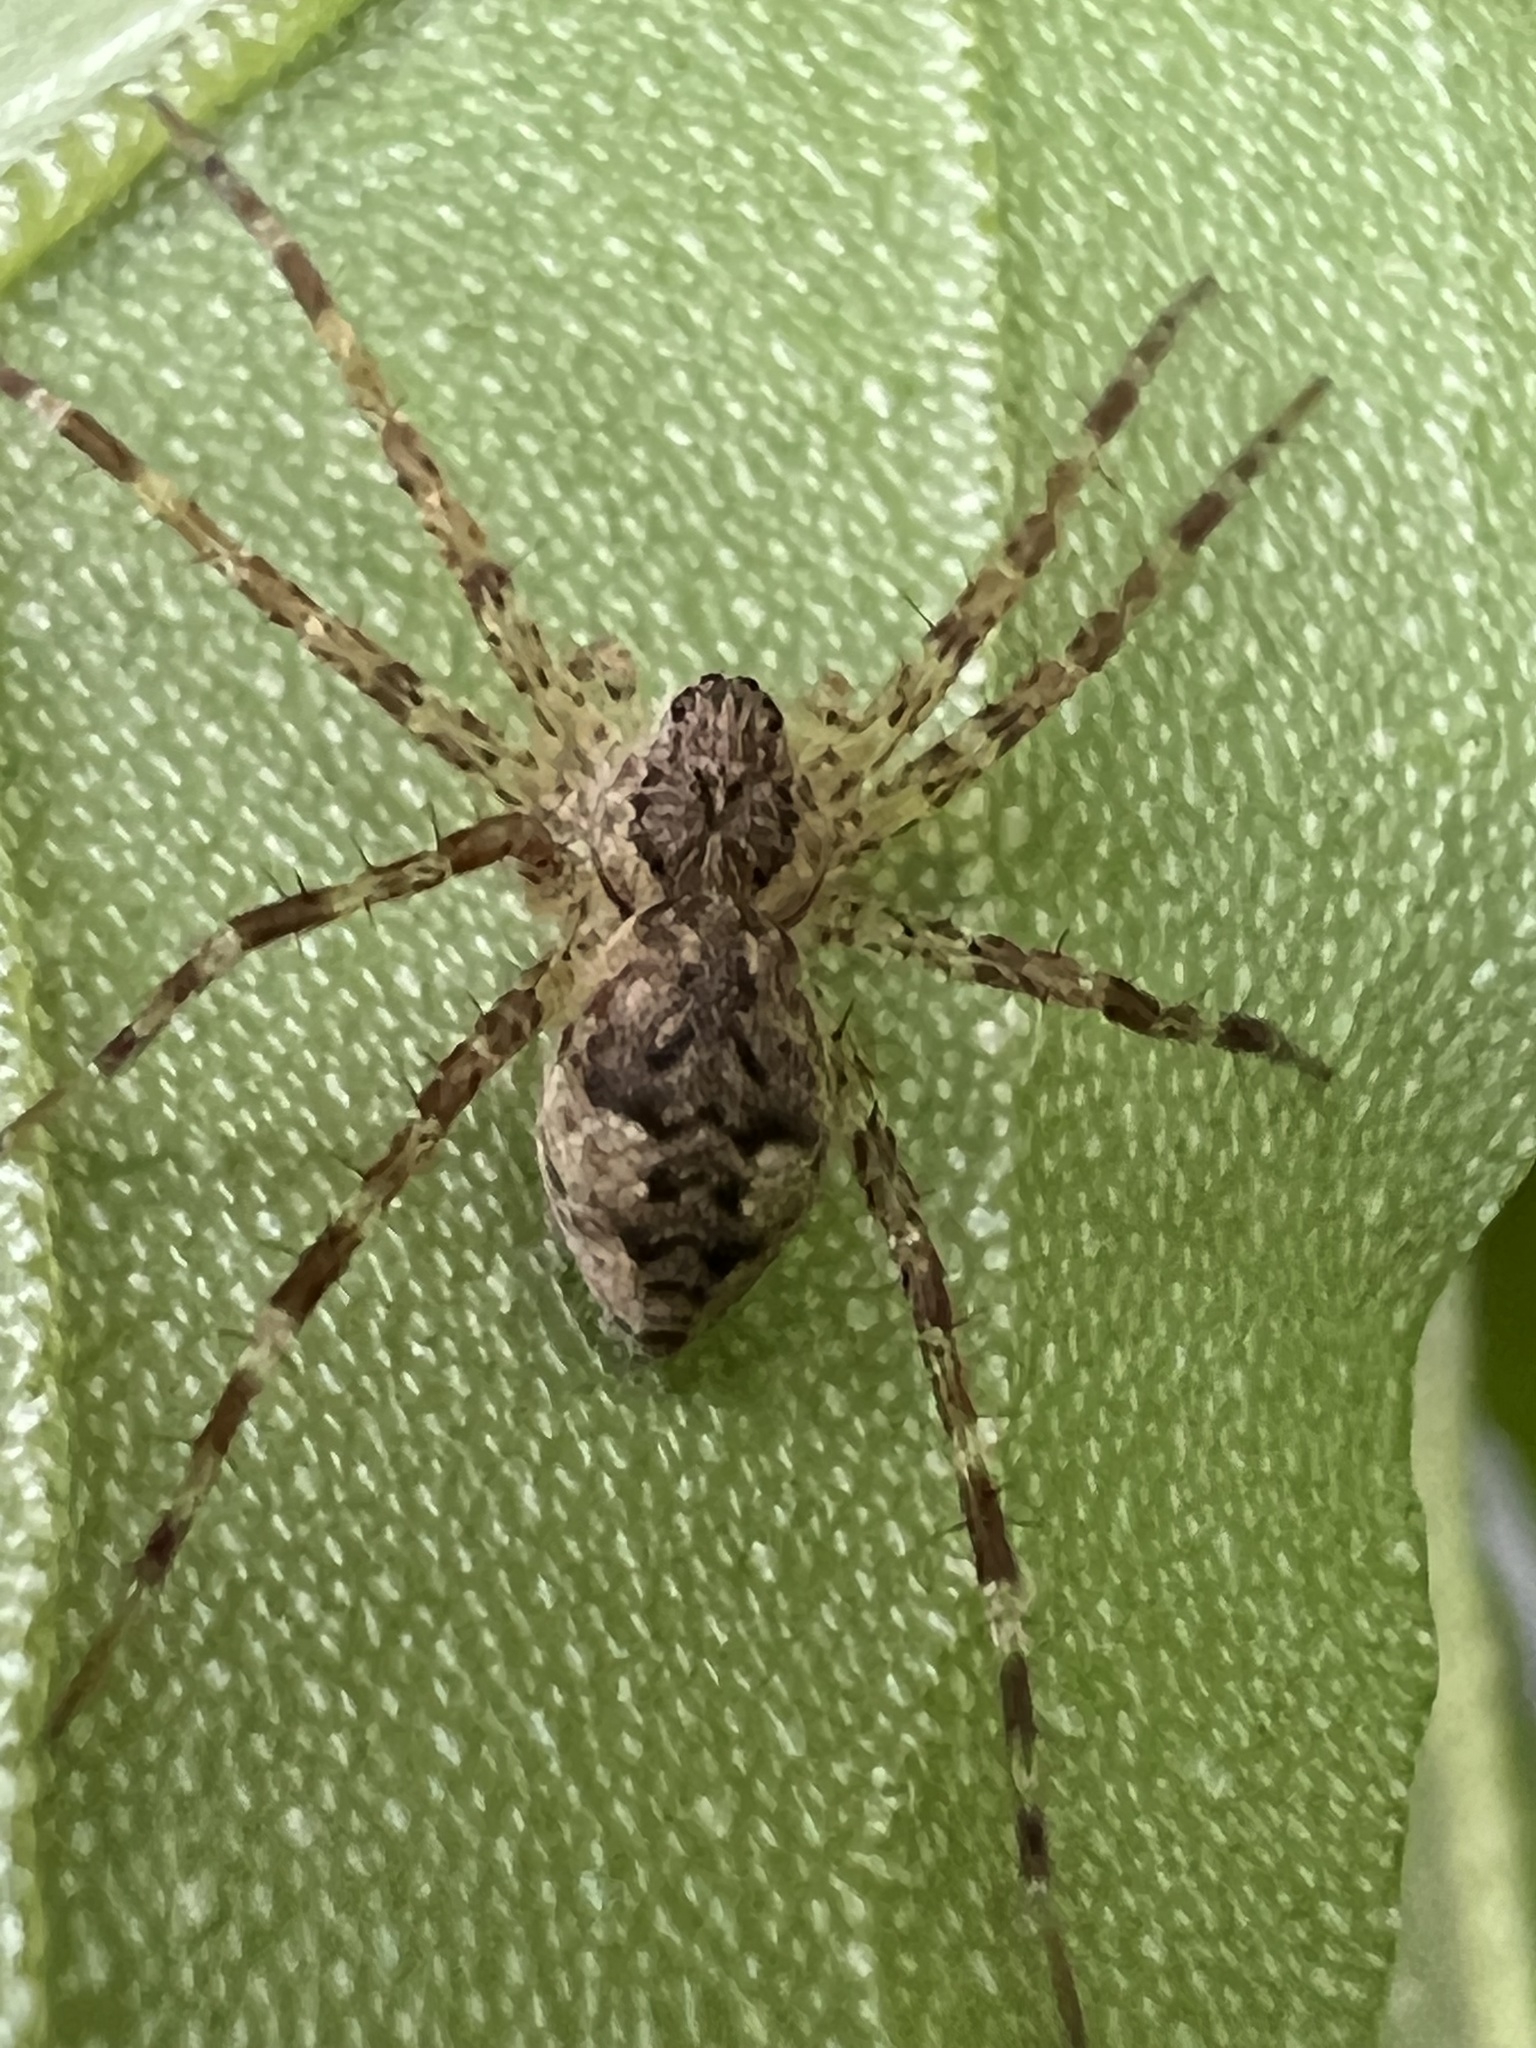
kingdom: Animalia
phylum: Arthropoda
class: Arachnida
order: Araneae
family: Pisauridae
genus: Dolomedes
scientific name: Dolomedes tenebrosus
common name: Dark fishing spider
